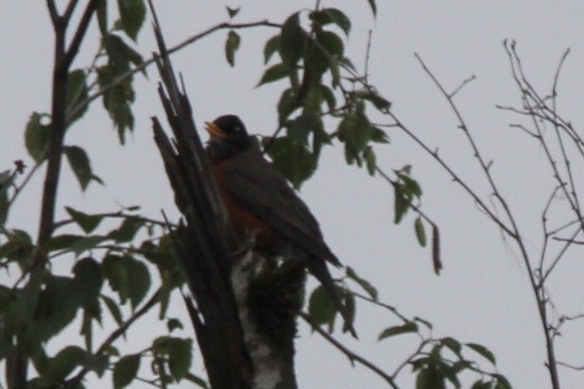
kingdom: Animalia
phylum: Chordata
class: Aves
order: Passeriformes
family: Turdidae
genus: Turdus
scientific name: Turdus migratorius
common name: American robin
